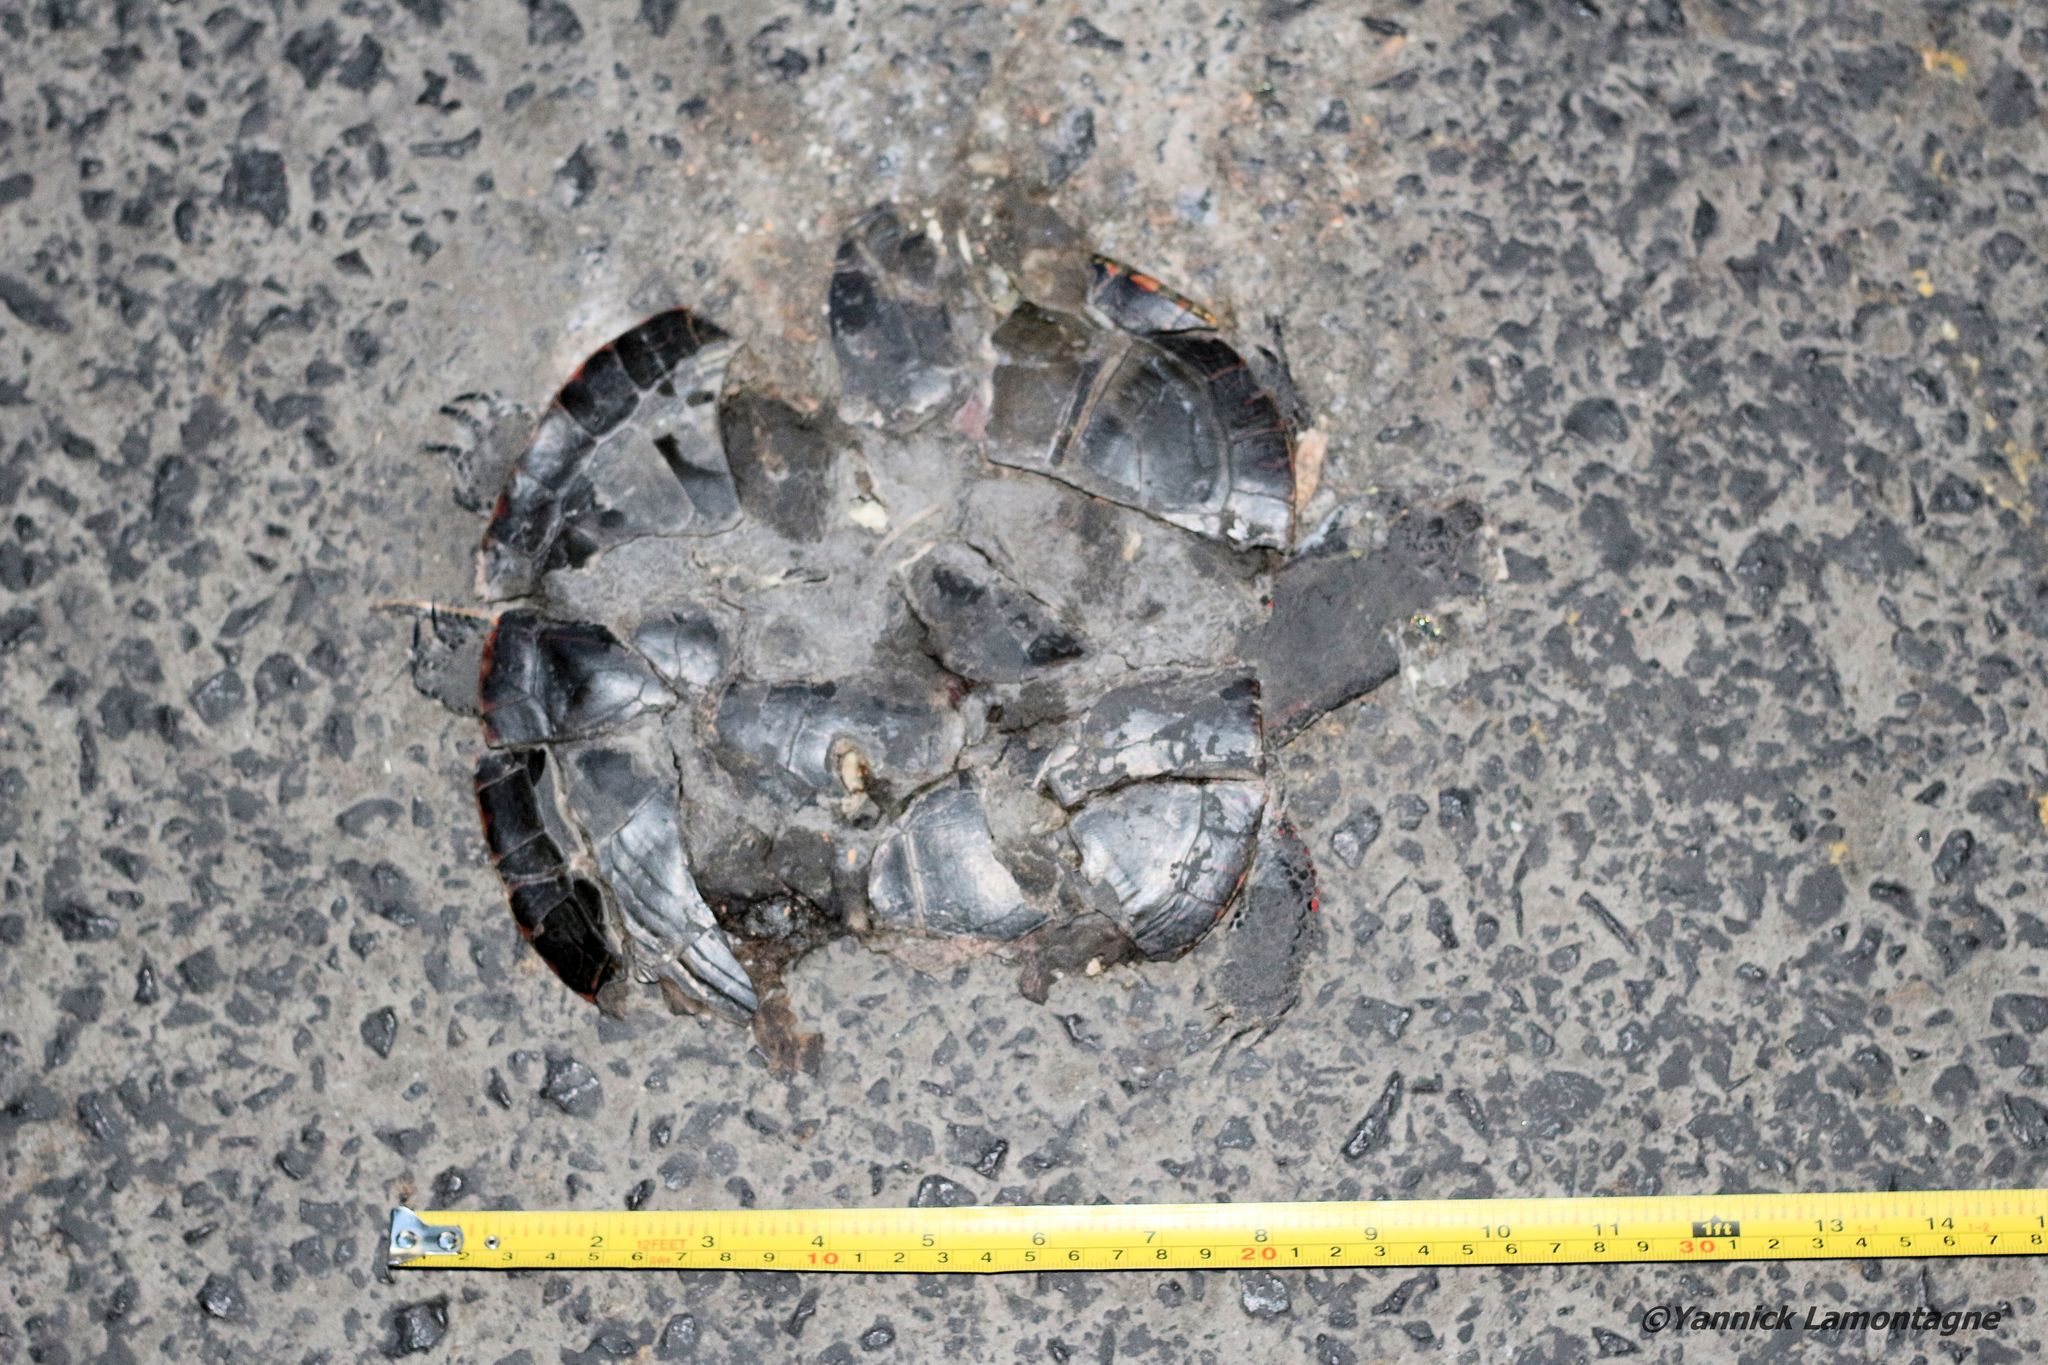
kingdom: Animalia
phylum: Chordata
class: Testudines
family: Emydidae
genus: Chrysemys
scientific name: Chrysemys picta
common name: Painted turtle
